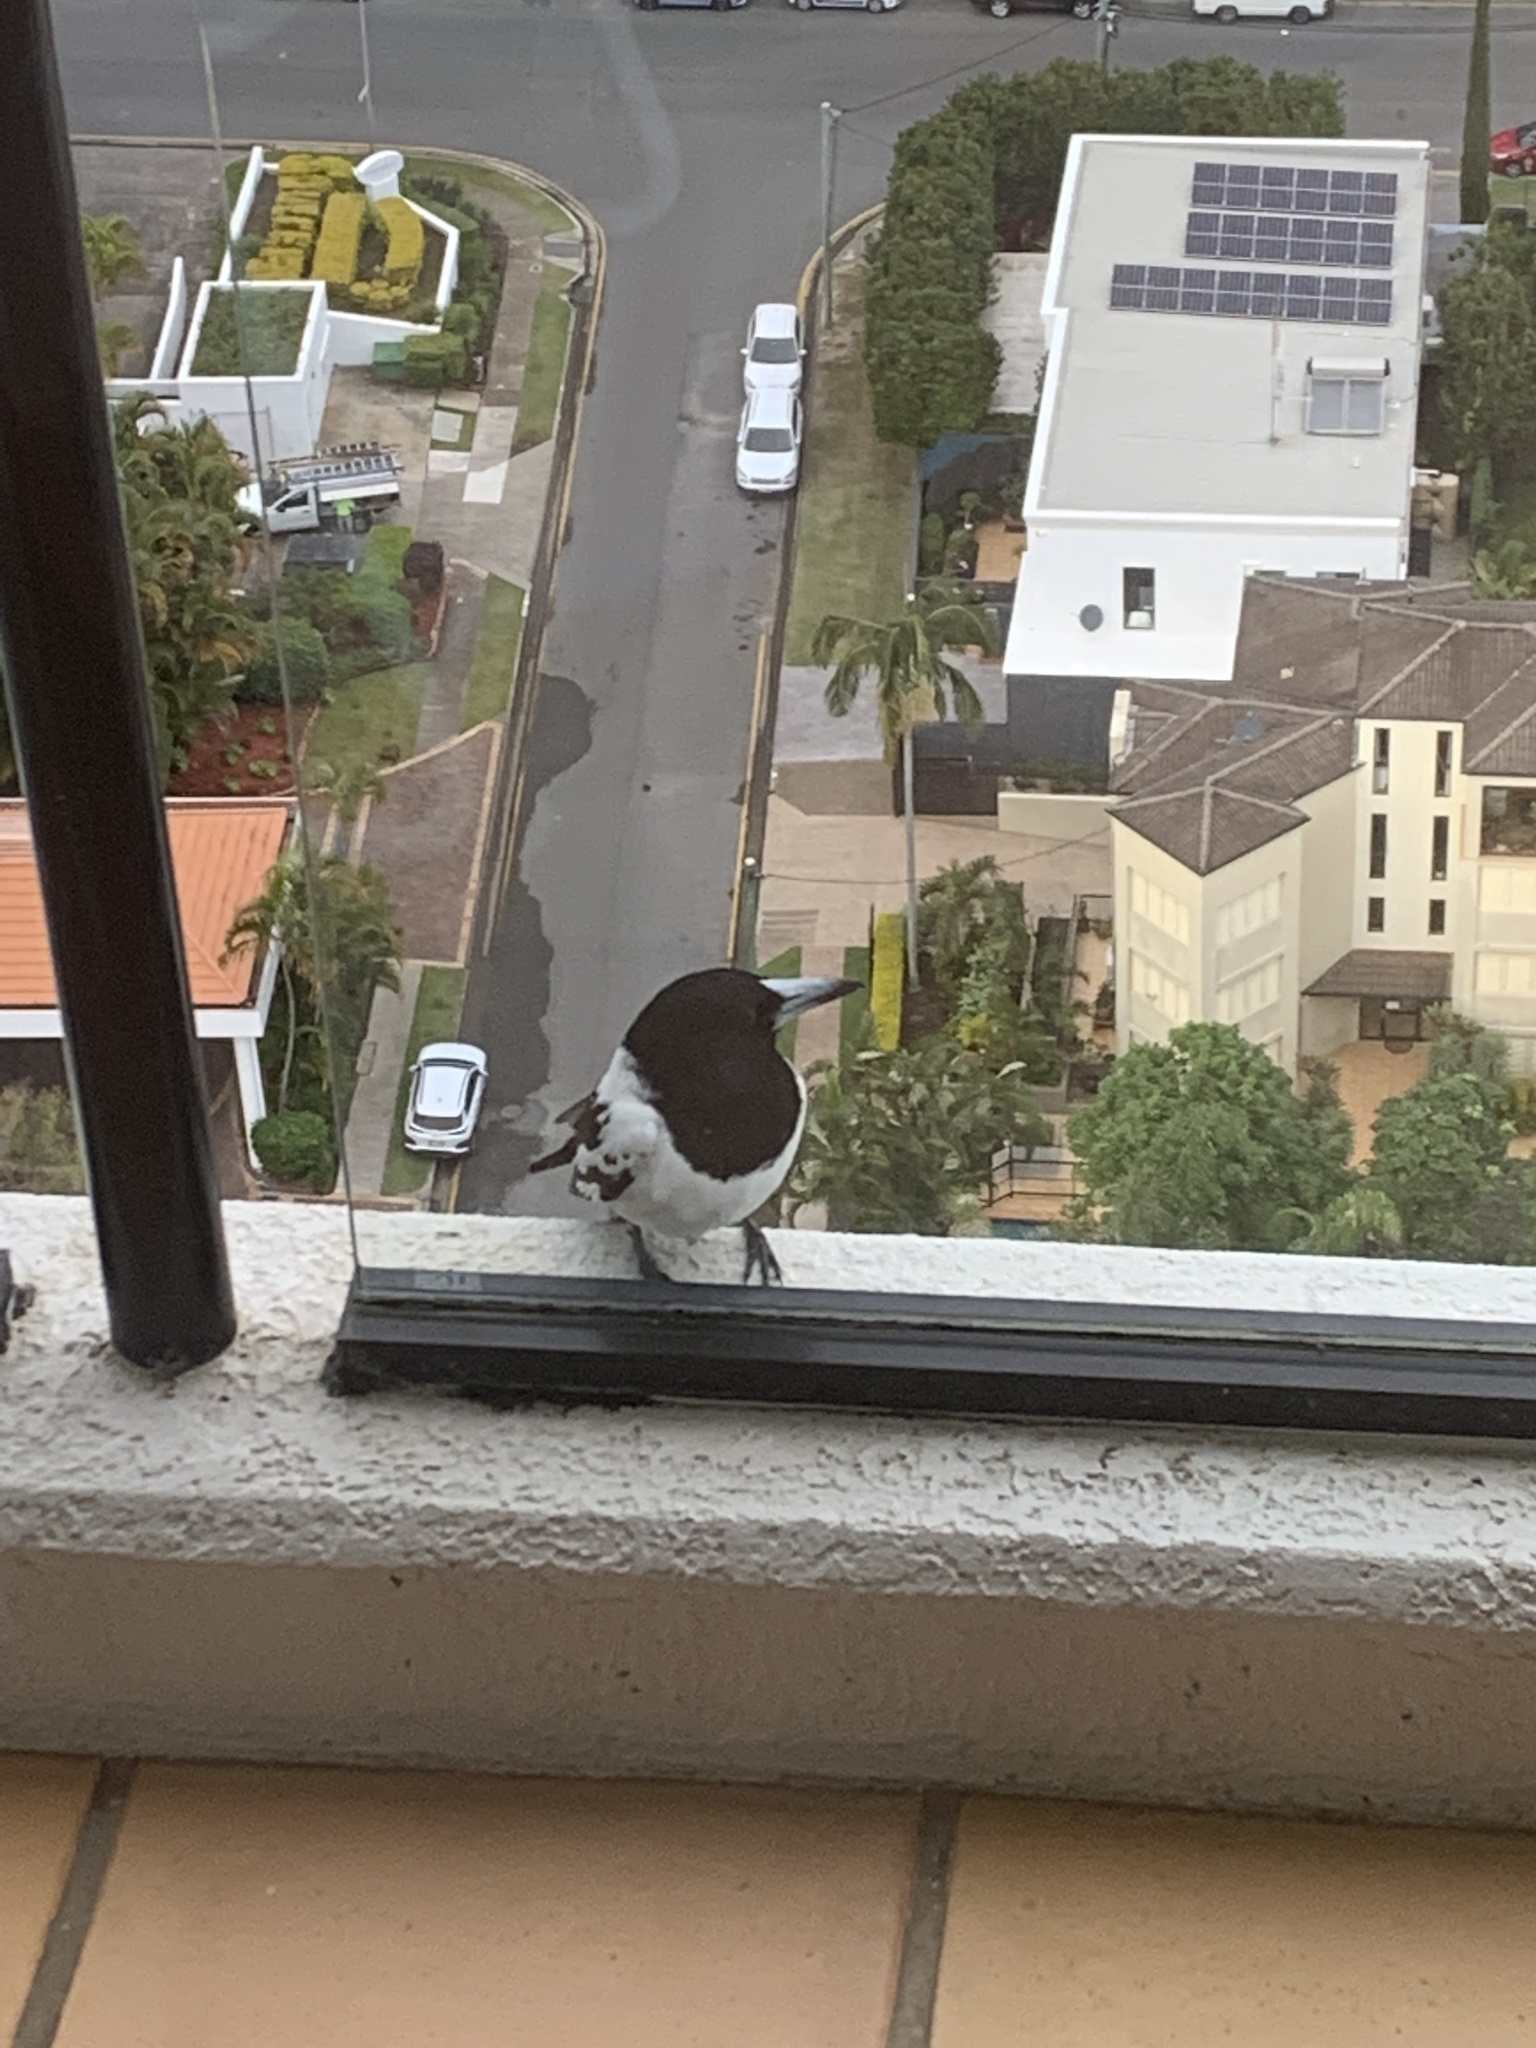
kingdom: Animalia
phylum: Chordata
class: Aves
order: Passeriformes
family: Cracticidae
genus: Cracticus
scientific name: Cracticus nigrogularis
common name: Pied butcherbird
